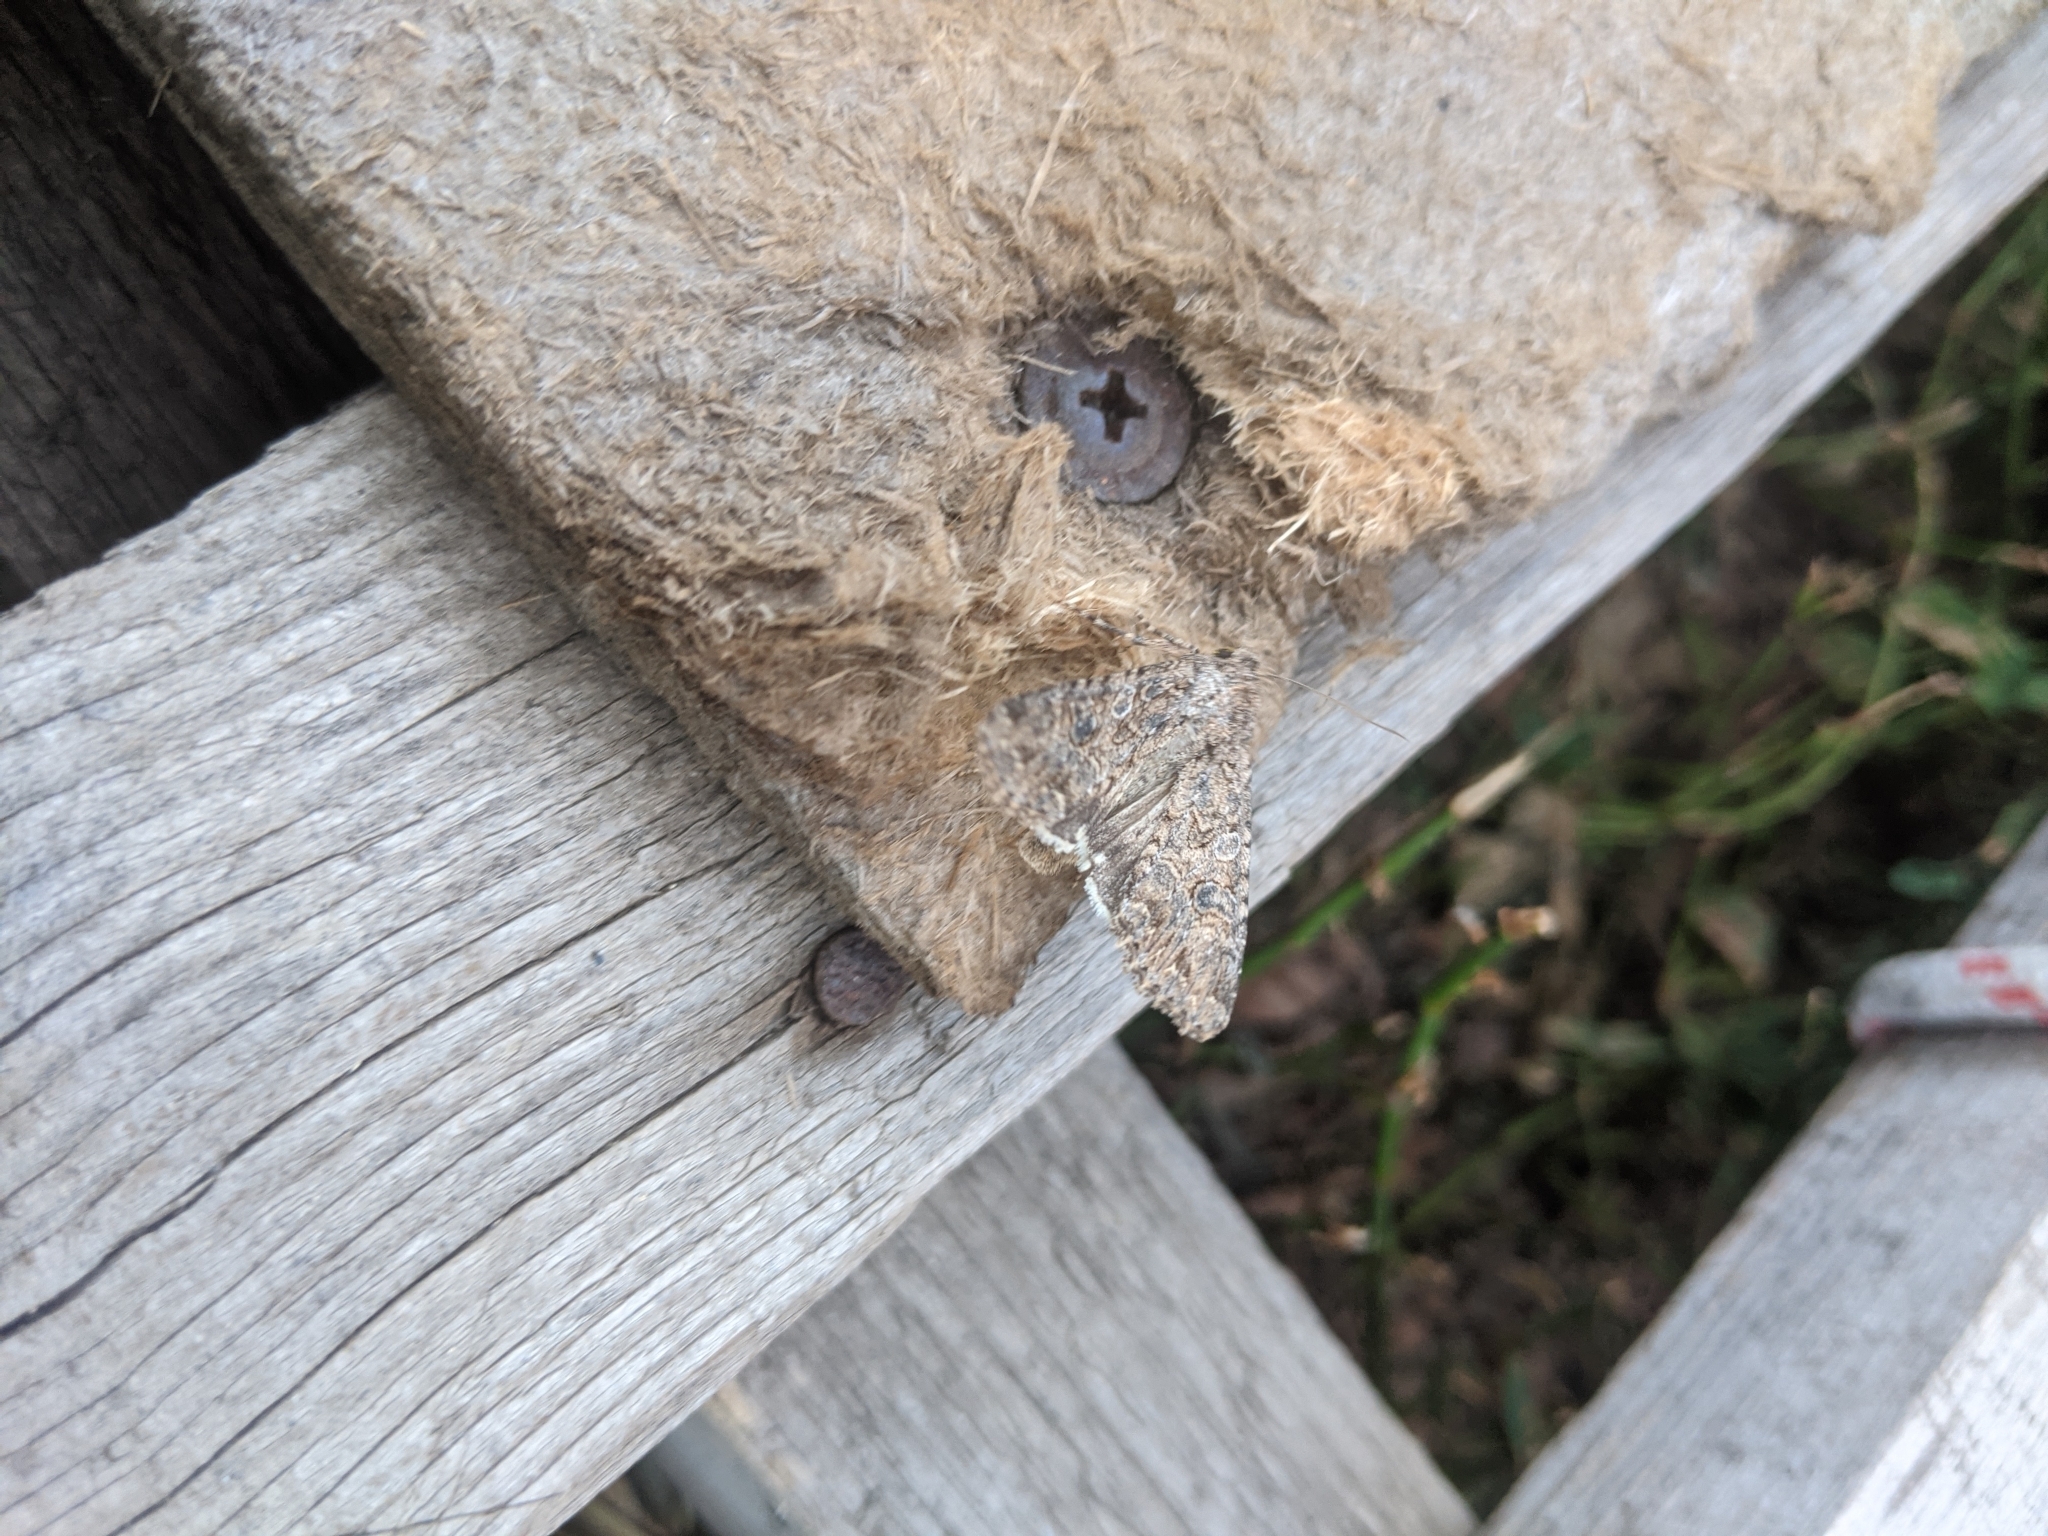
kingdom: Animalia
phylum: Arthropoda
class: Insecta
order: Lepidoptera
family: Noctuidae
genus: Anarta
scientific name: Anarta trifolii
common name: Clover cutworm moth
